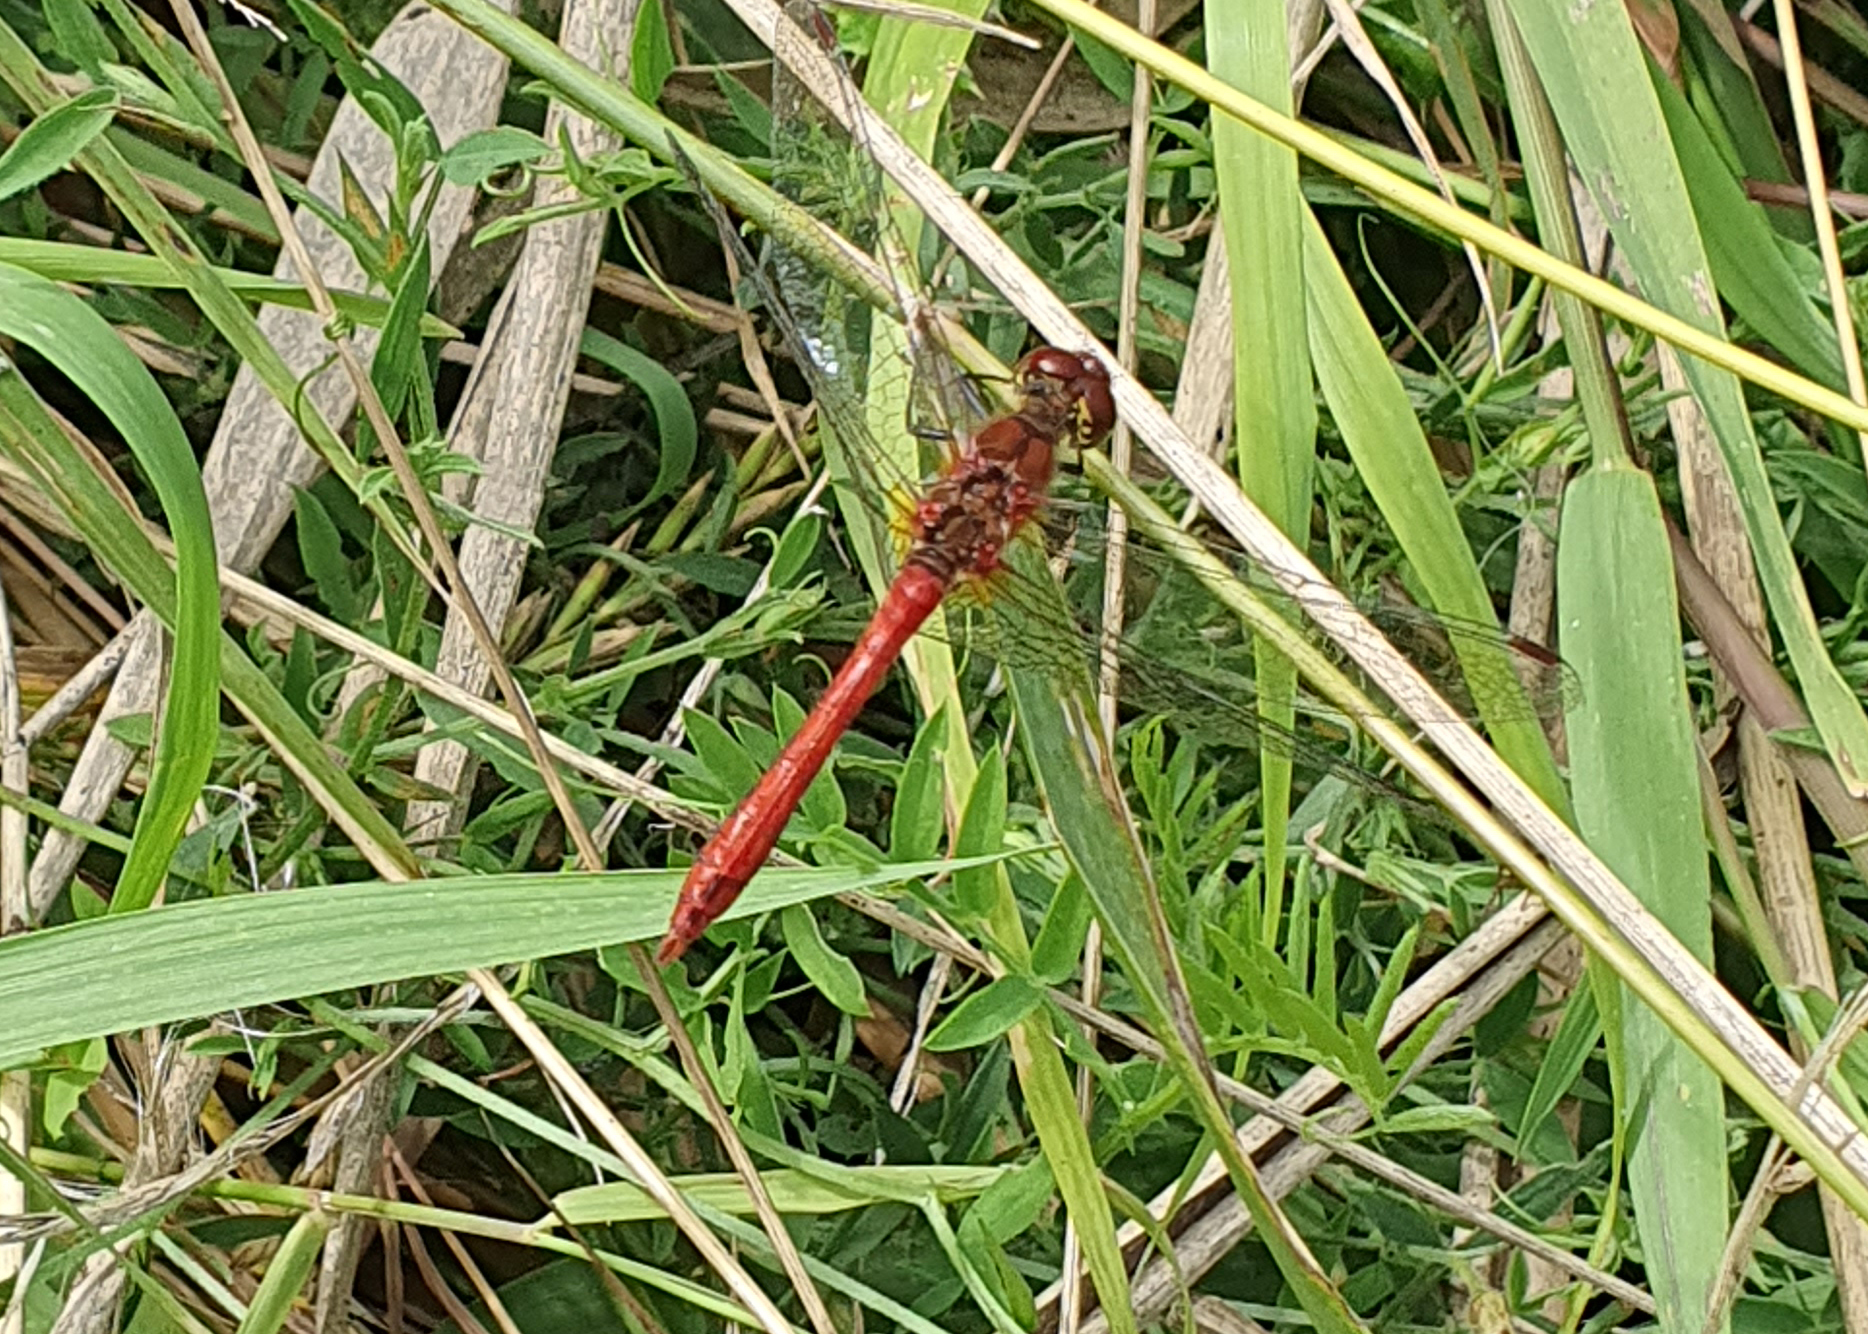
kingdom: Animalia
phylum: Arthropoda
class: Insecta
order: Odonata
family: Libellulidae
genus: Sympetrum
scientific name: Sympetrum sanguineum
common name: Ruddy darter
